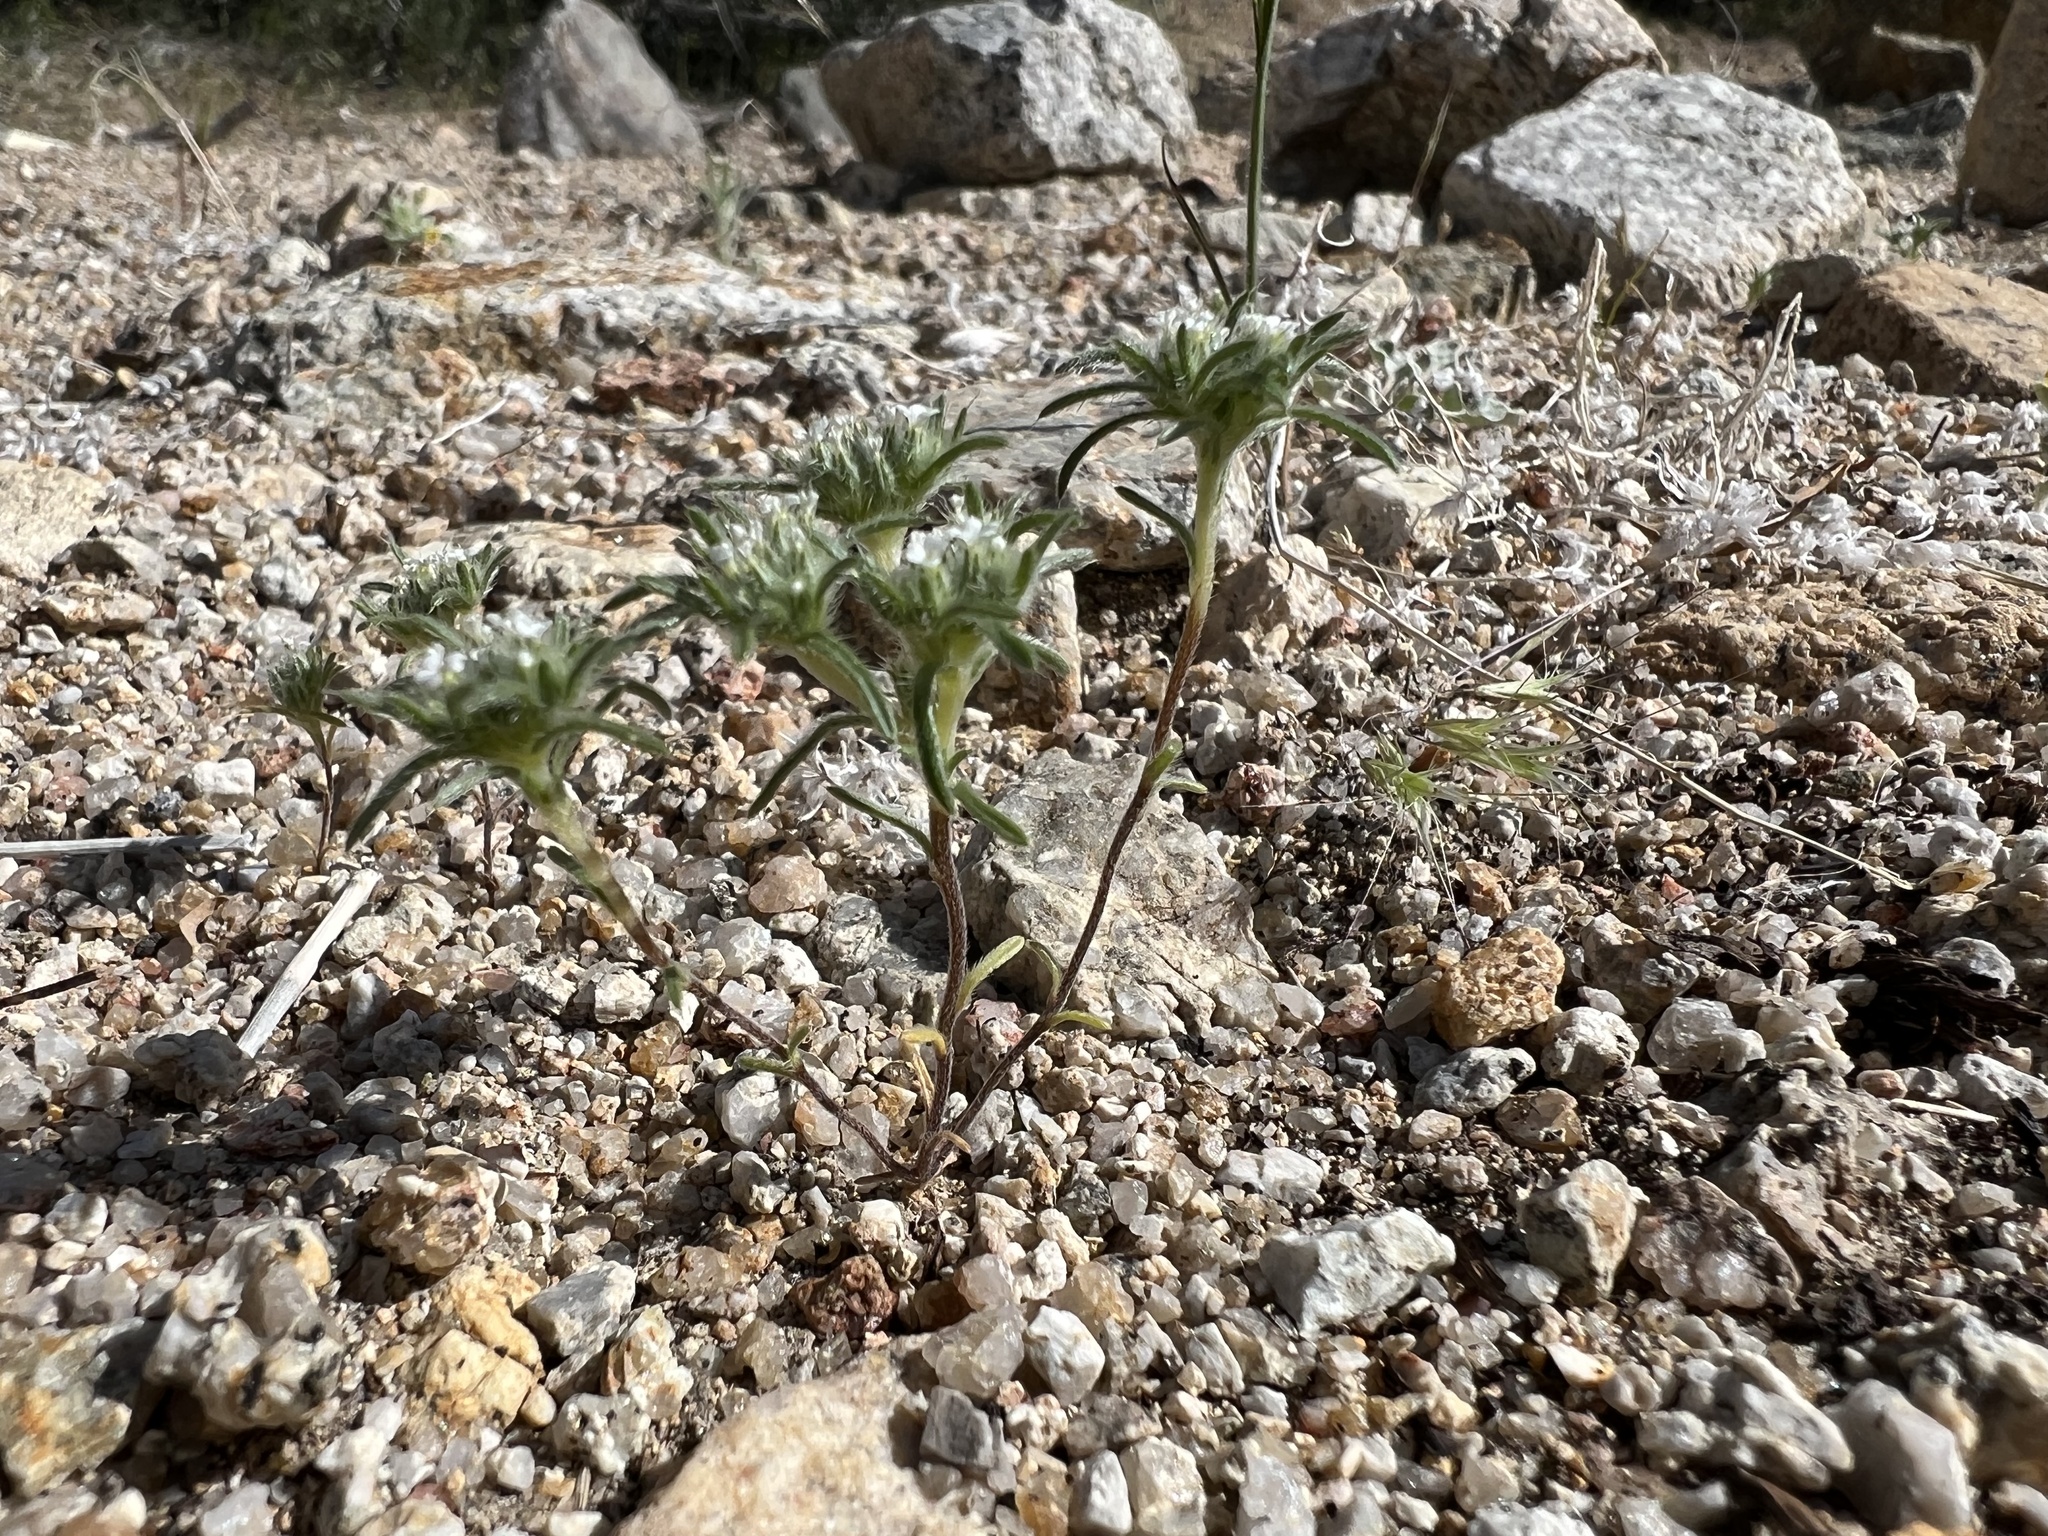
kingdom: Plantae
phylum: Tracheophyta
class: Magnoliopsida
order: Boraginales
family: Boraginaceae
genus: Greeneocharis
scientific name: Greeneocharis circumscissa
